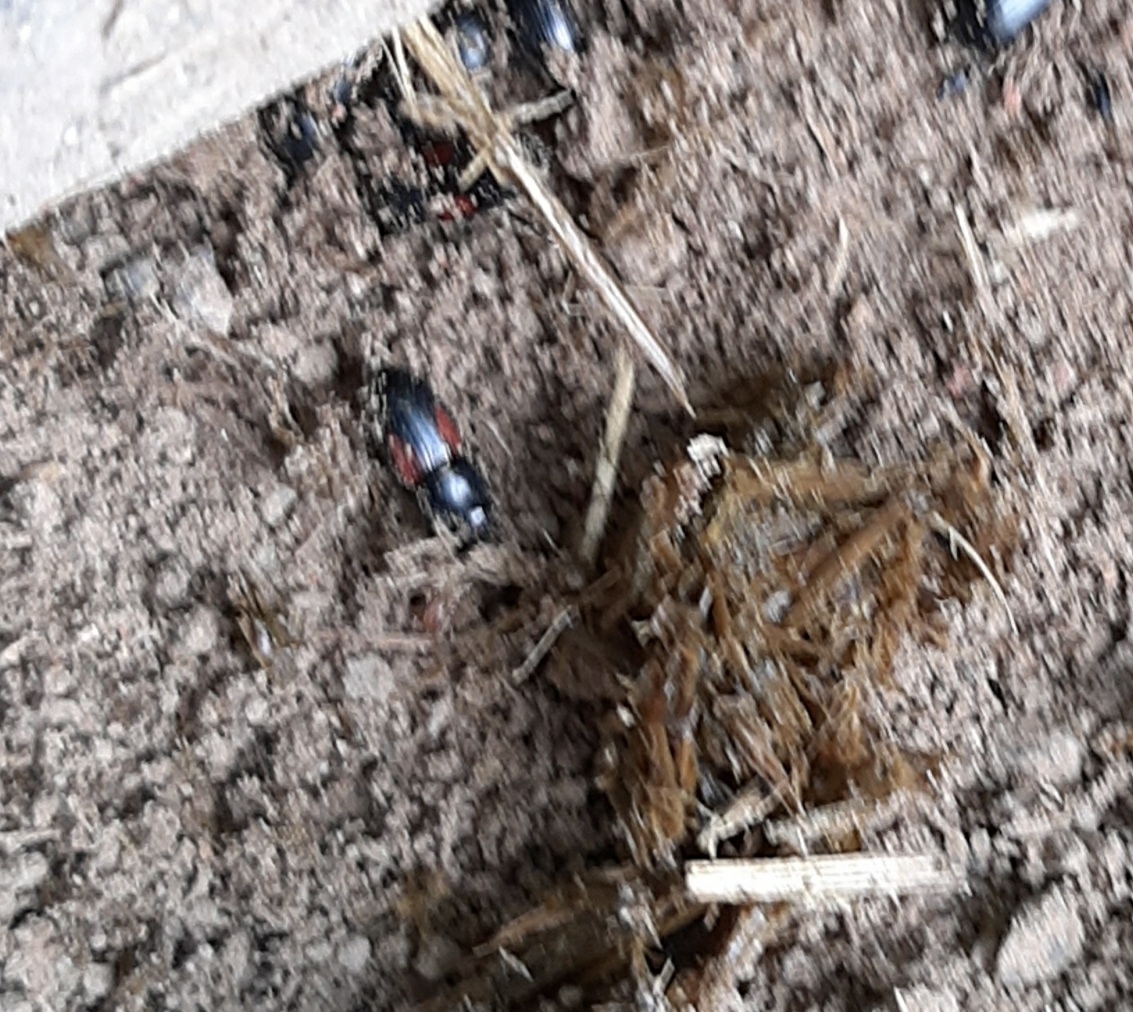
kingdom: Animalia
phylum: Arthropoda
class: Insecta
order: Coleoptera
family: Scarabaeidae
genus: Nialus
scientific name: Nialus varians
